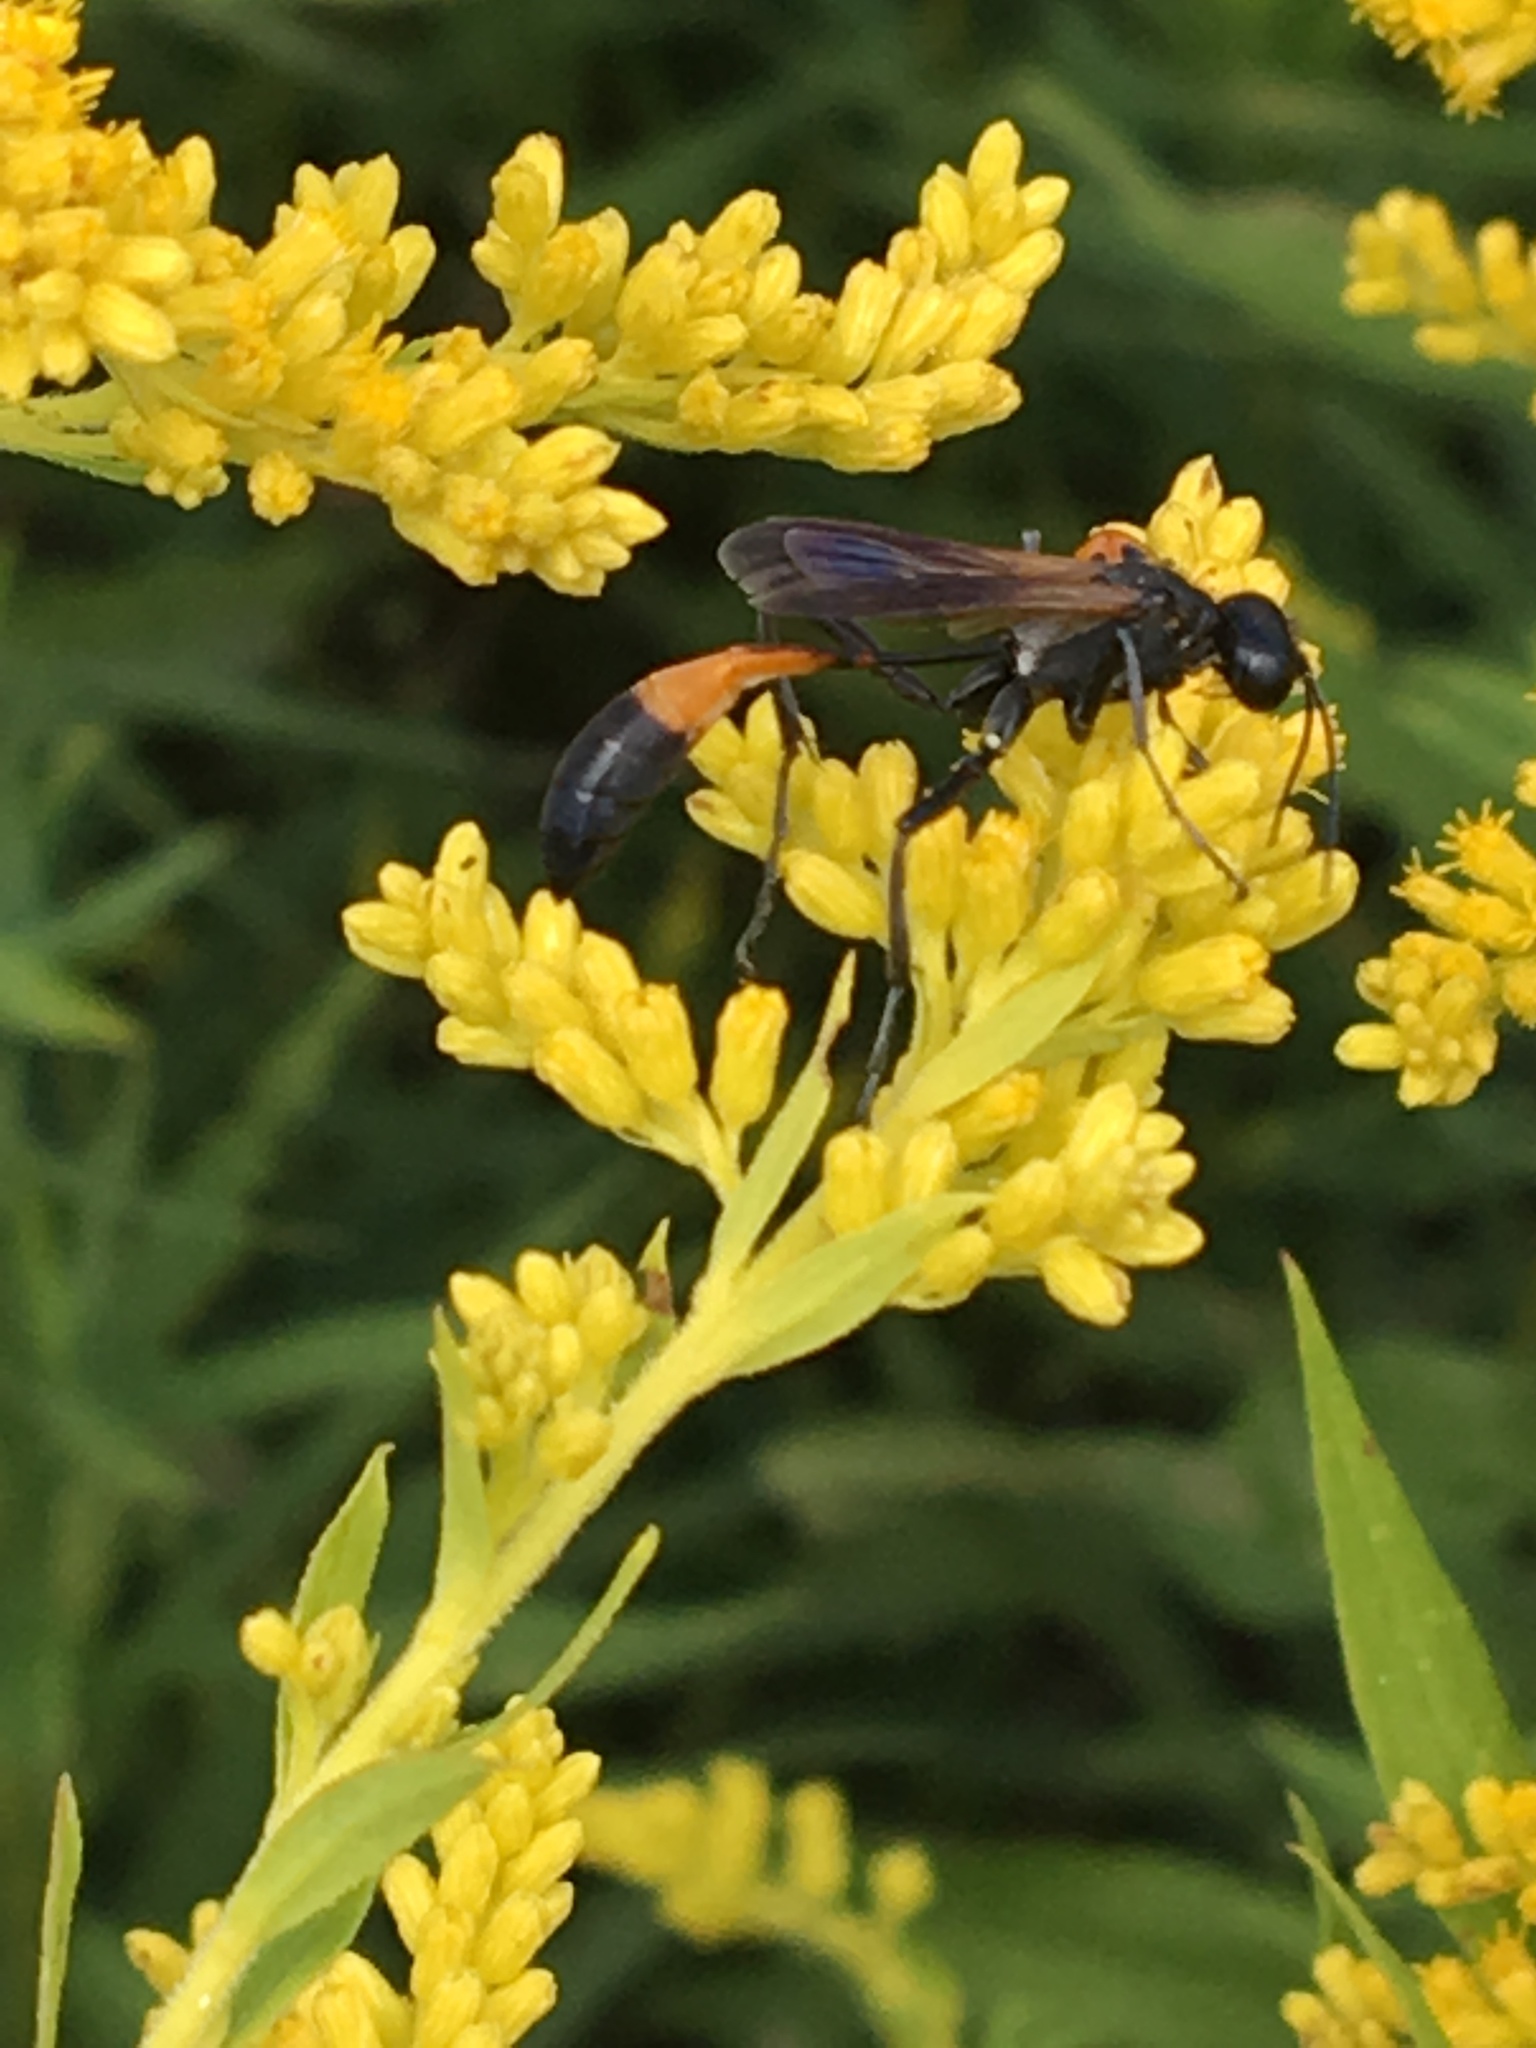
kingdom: Animalia
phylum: Arthropoda
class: Insecta
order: Hymenoptera
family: Sphecidae
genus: Ammophila
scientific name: Ammophila pictipennis
